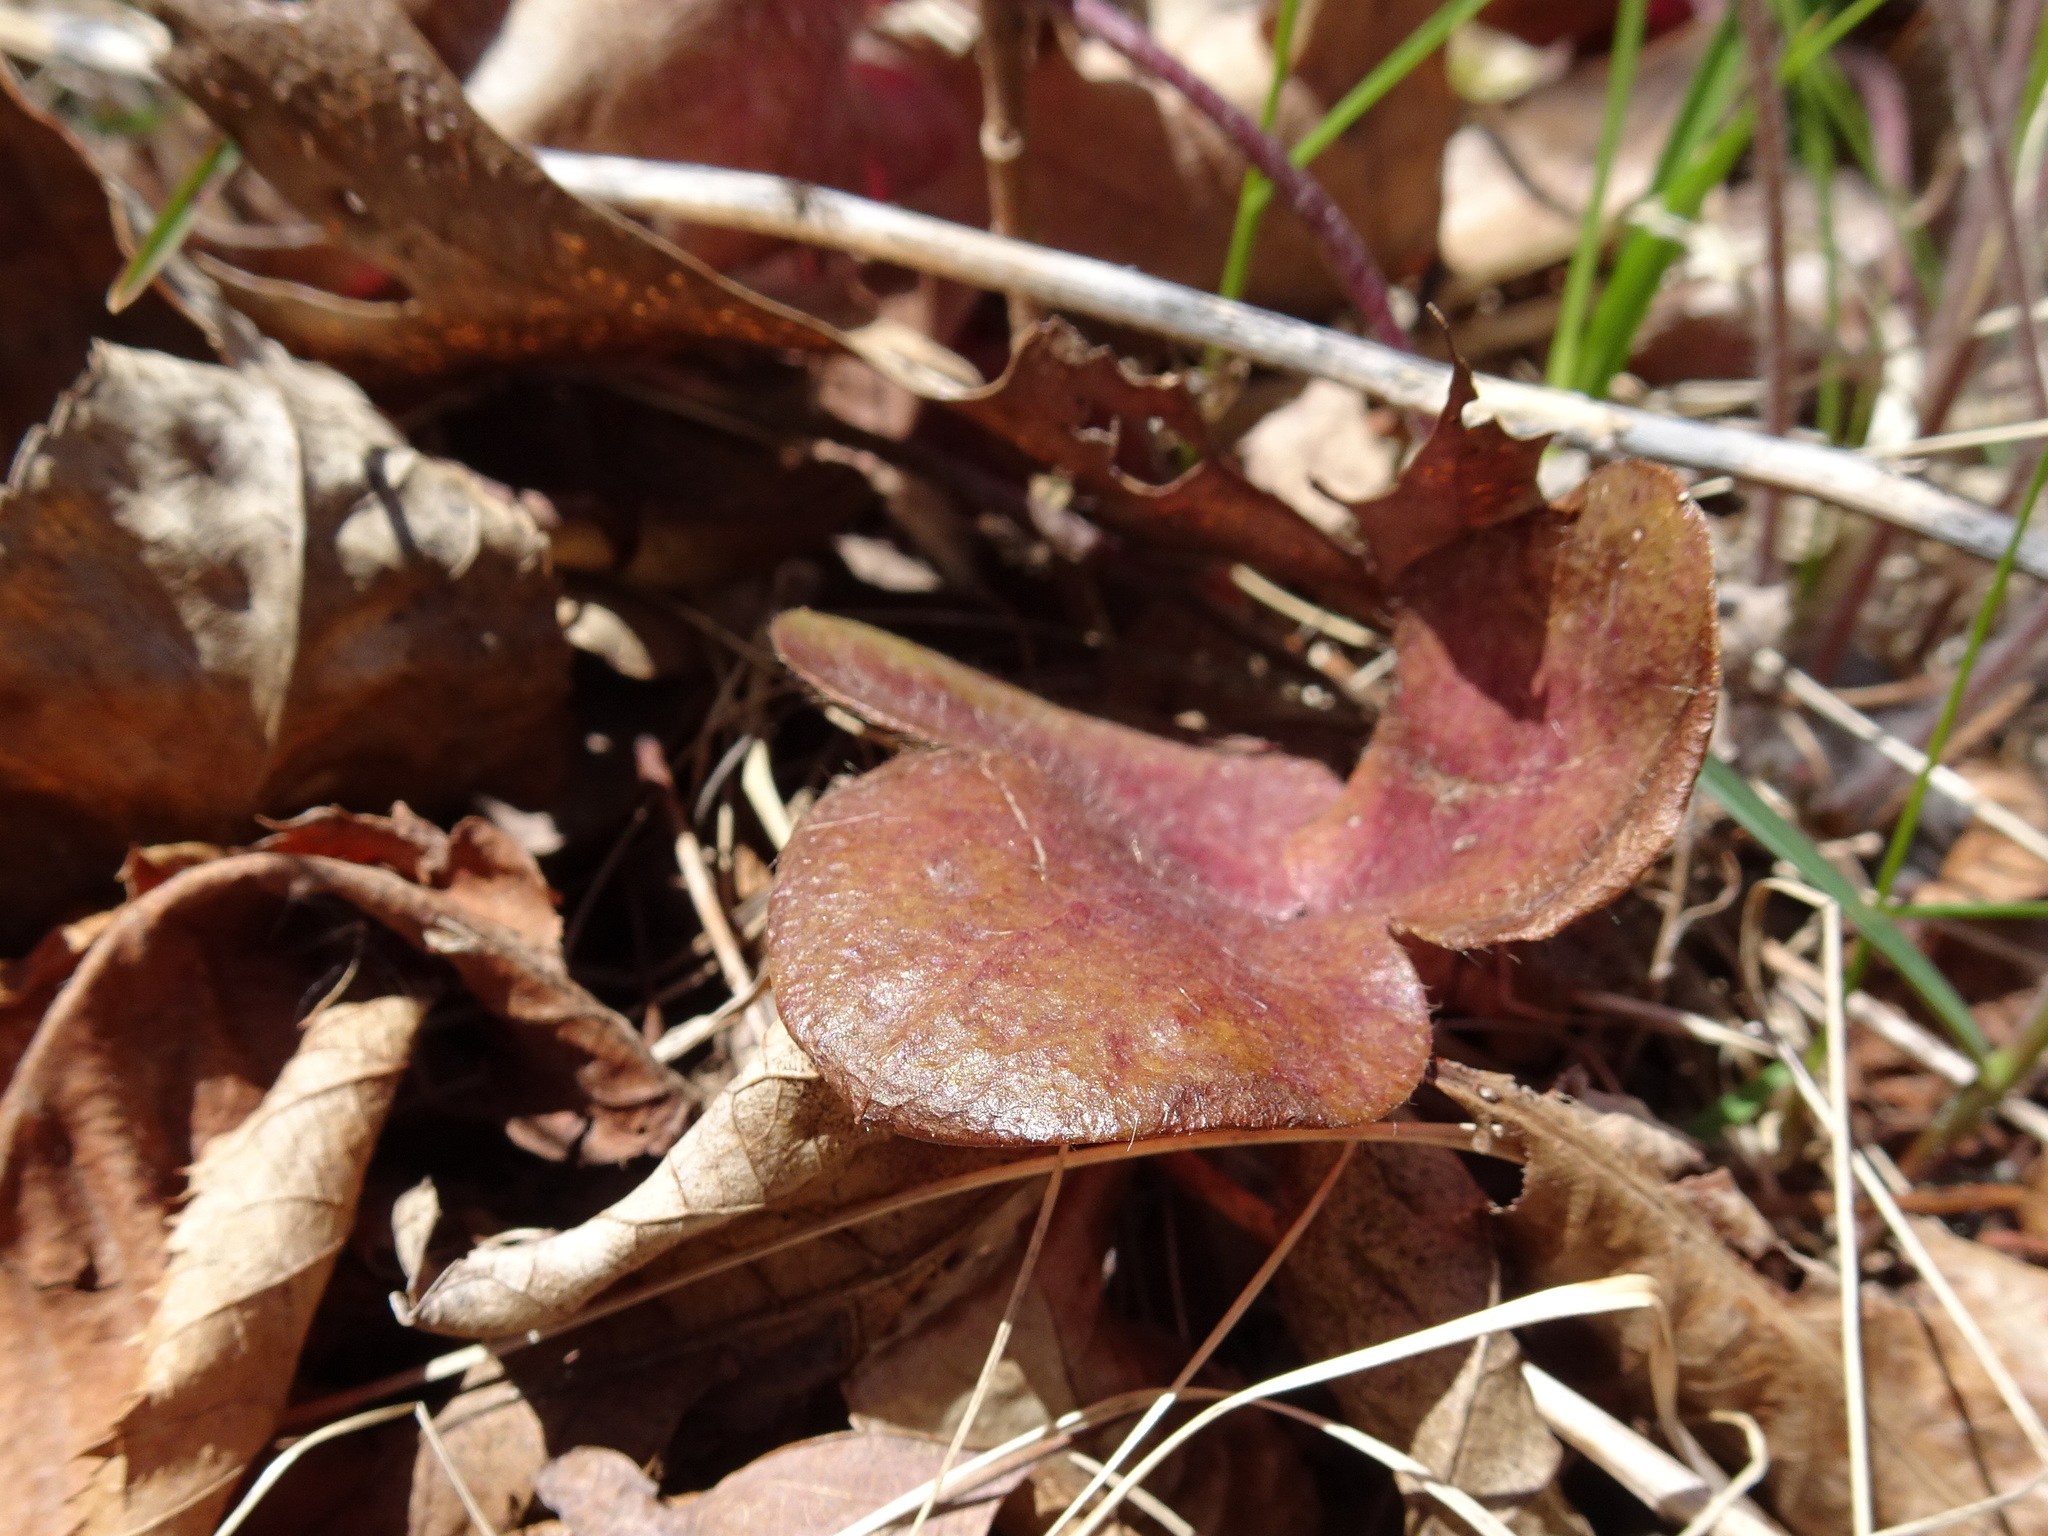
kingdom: Plantae
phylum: Tracheophyta
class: Magnoliopsida
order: Ranunculales
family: Ranunculaceae
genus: Hepatica
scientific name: Hepatica americana
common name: American hepatica
